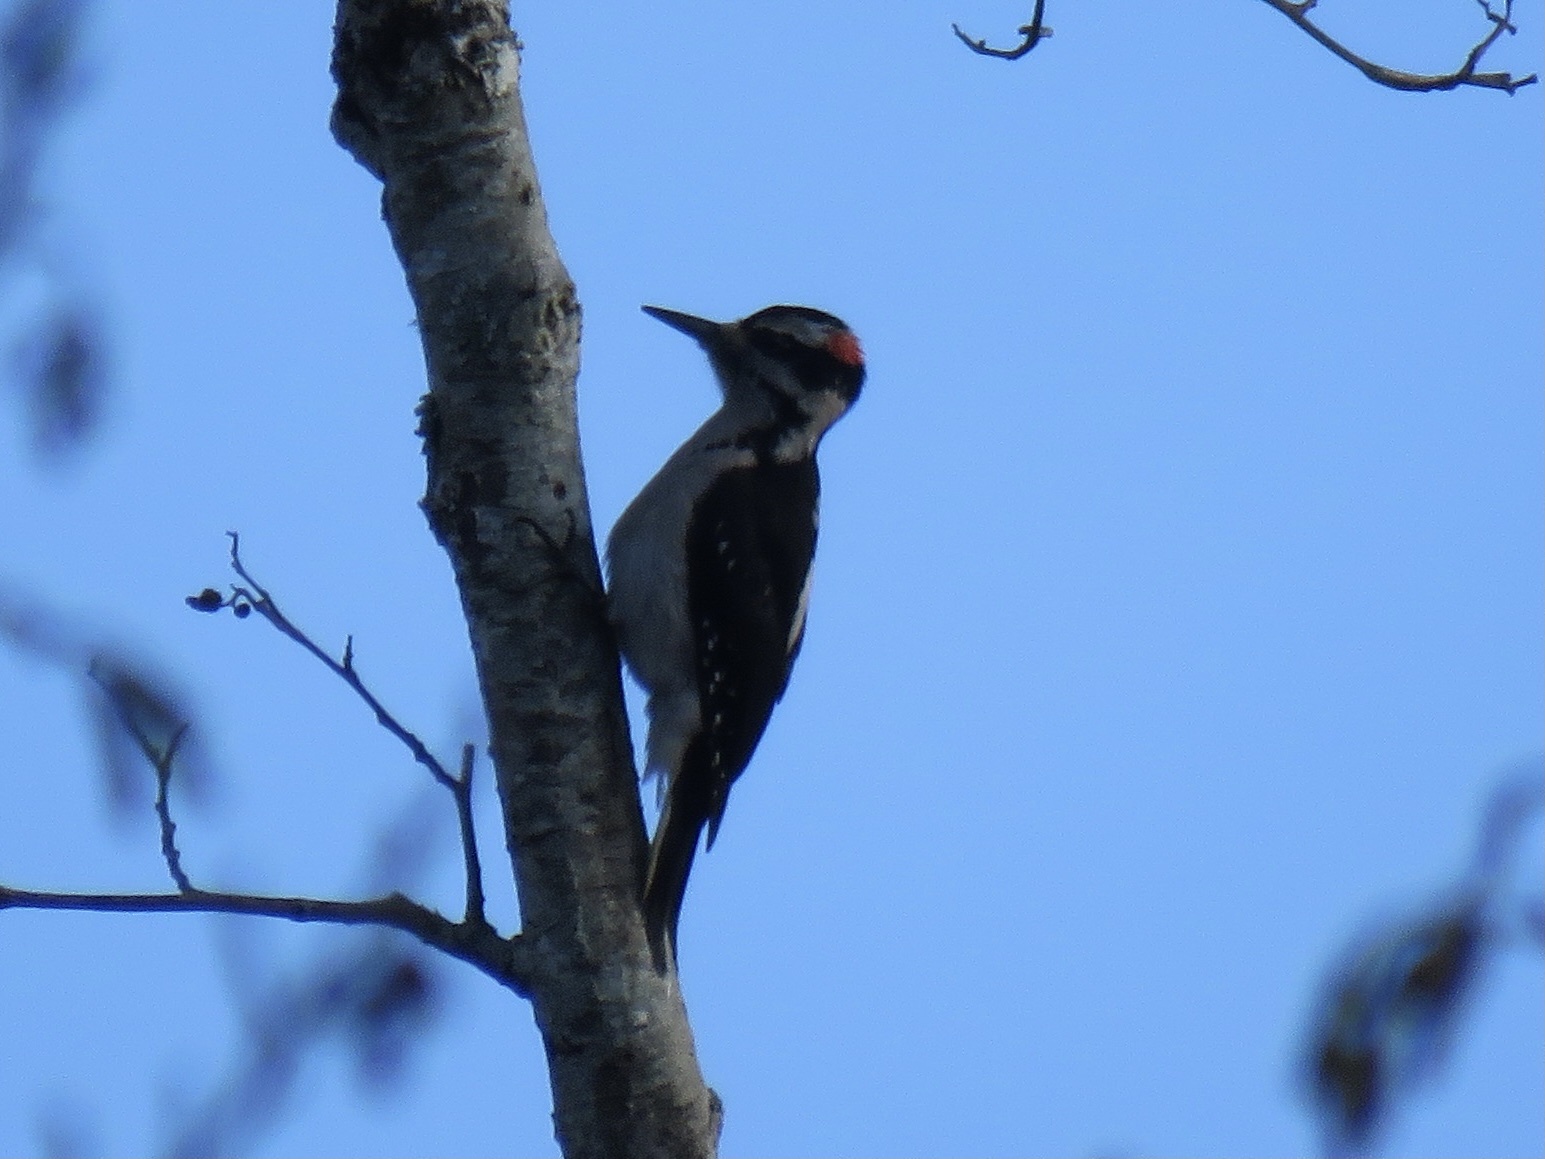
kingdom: Animalia
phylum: Chordata
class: Aves
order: Piciformes
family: Picidae
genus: Leuconotopicus
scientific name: Leuconotopicus villosus
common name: Hairy woodpecker
